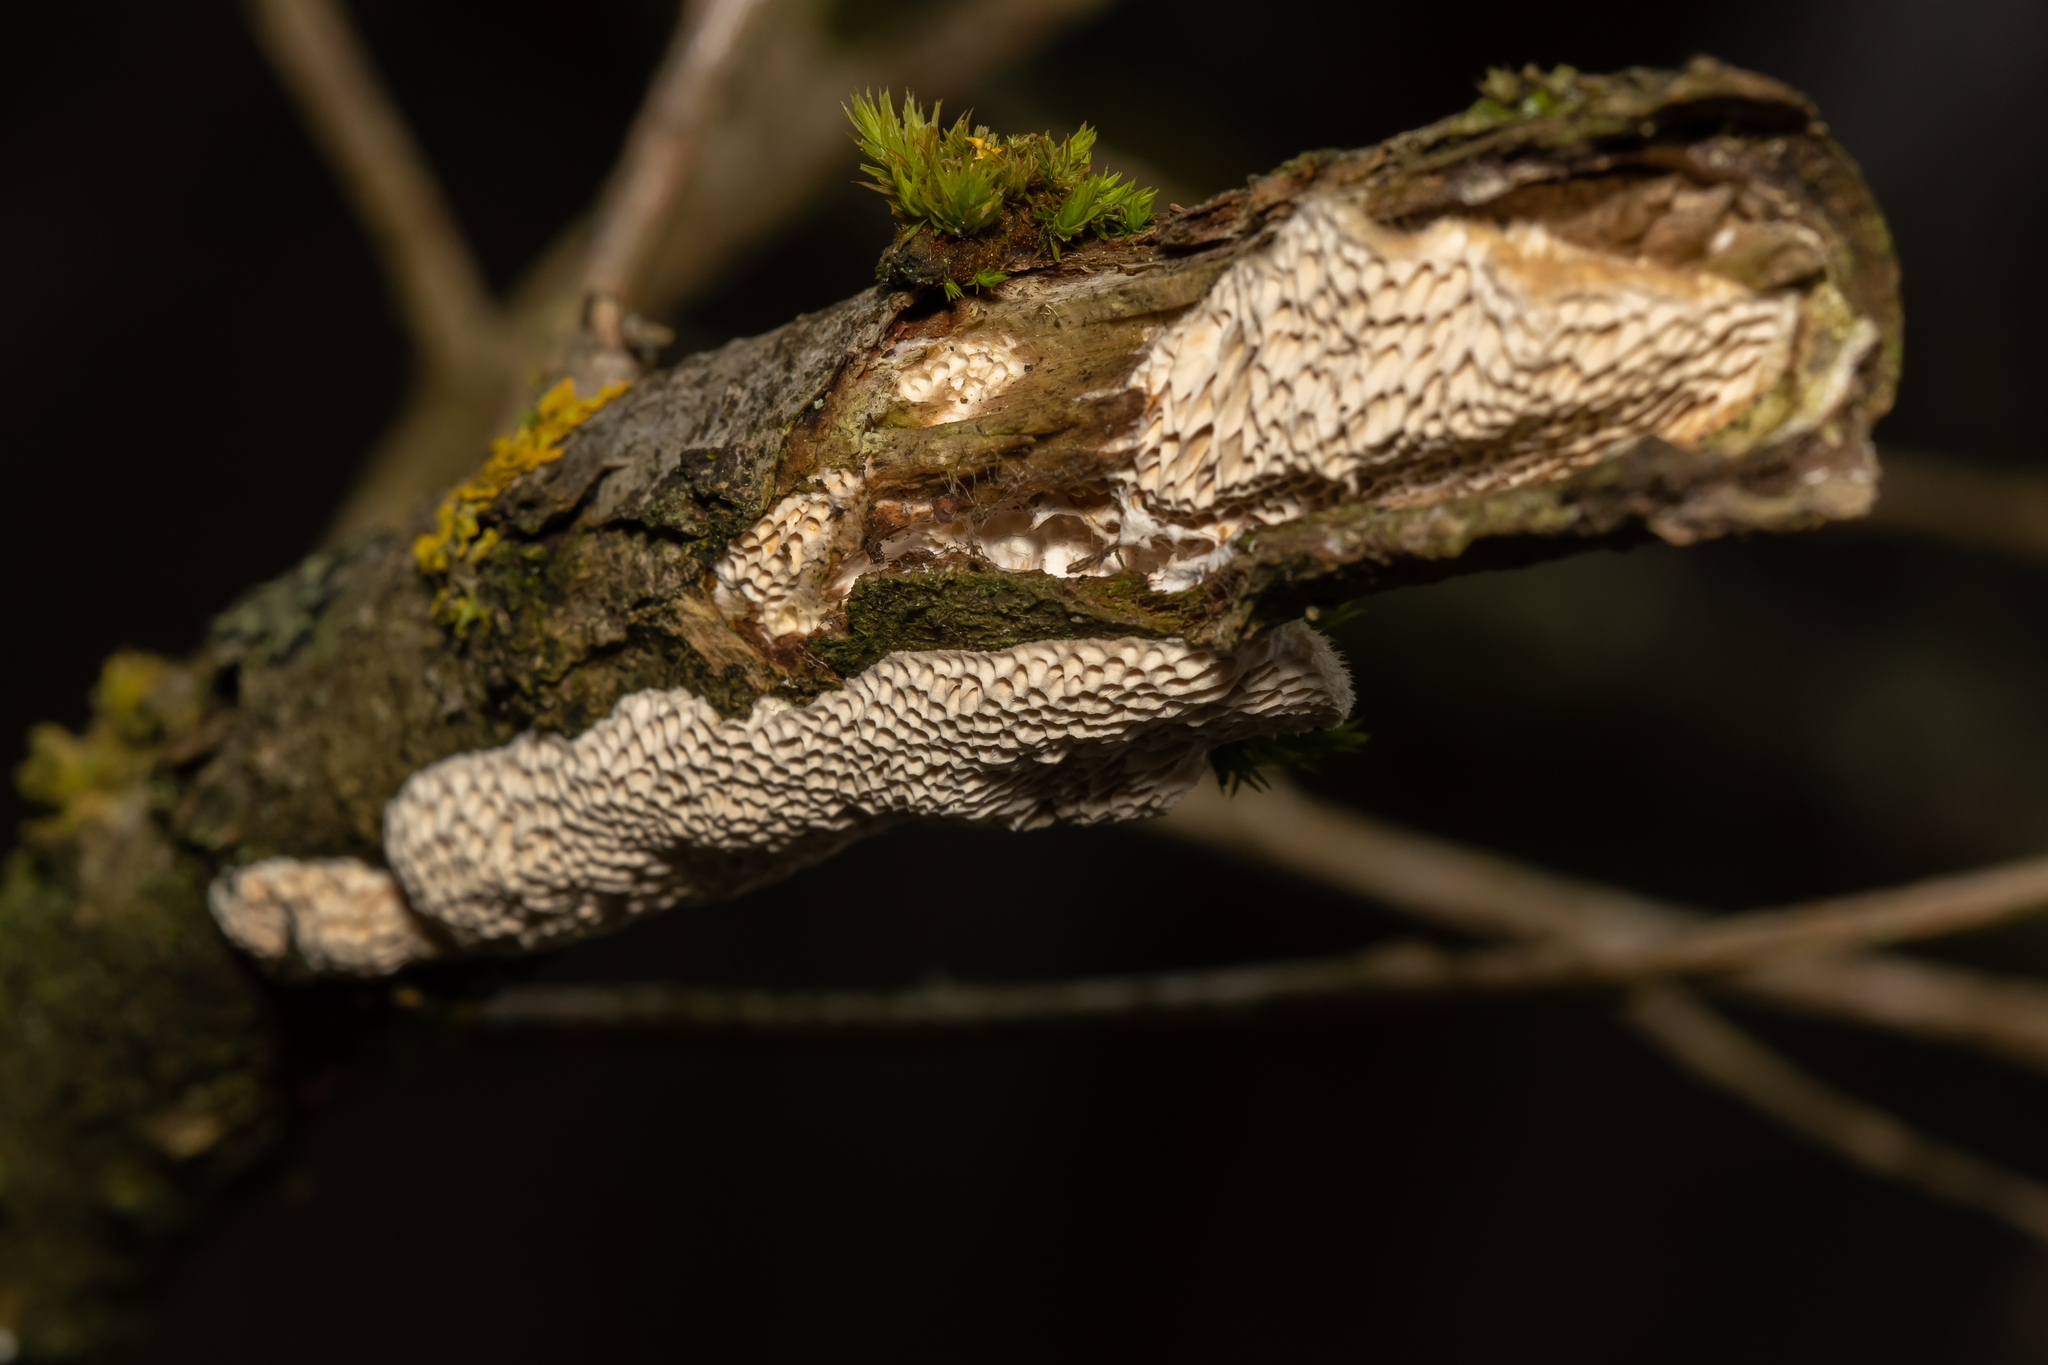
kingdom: Fungi
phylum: Basidiomycota
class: Agaricomycetes
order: Polyporales
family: Polyporaceae
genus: Trametes
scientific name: Trametes trogii
